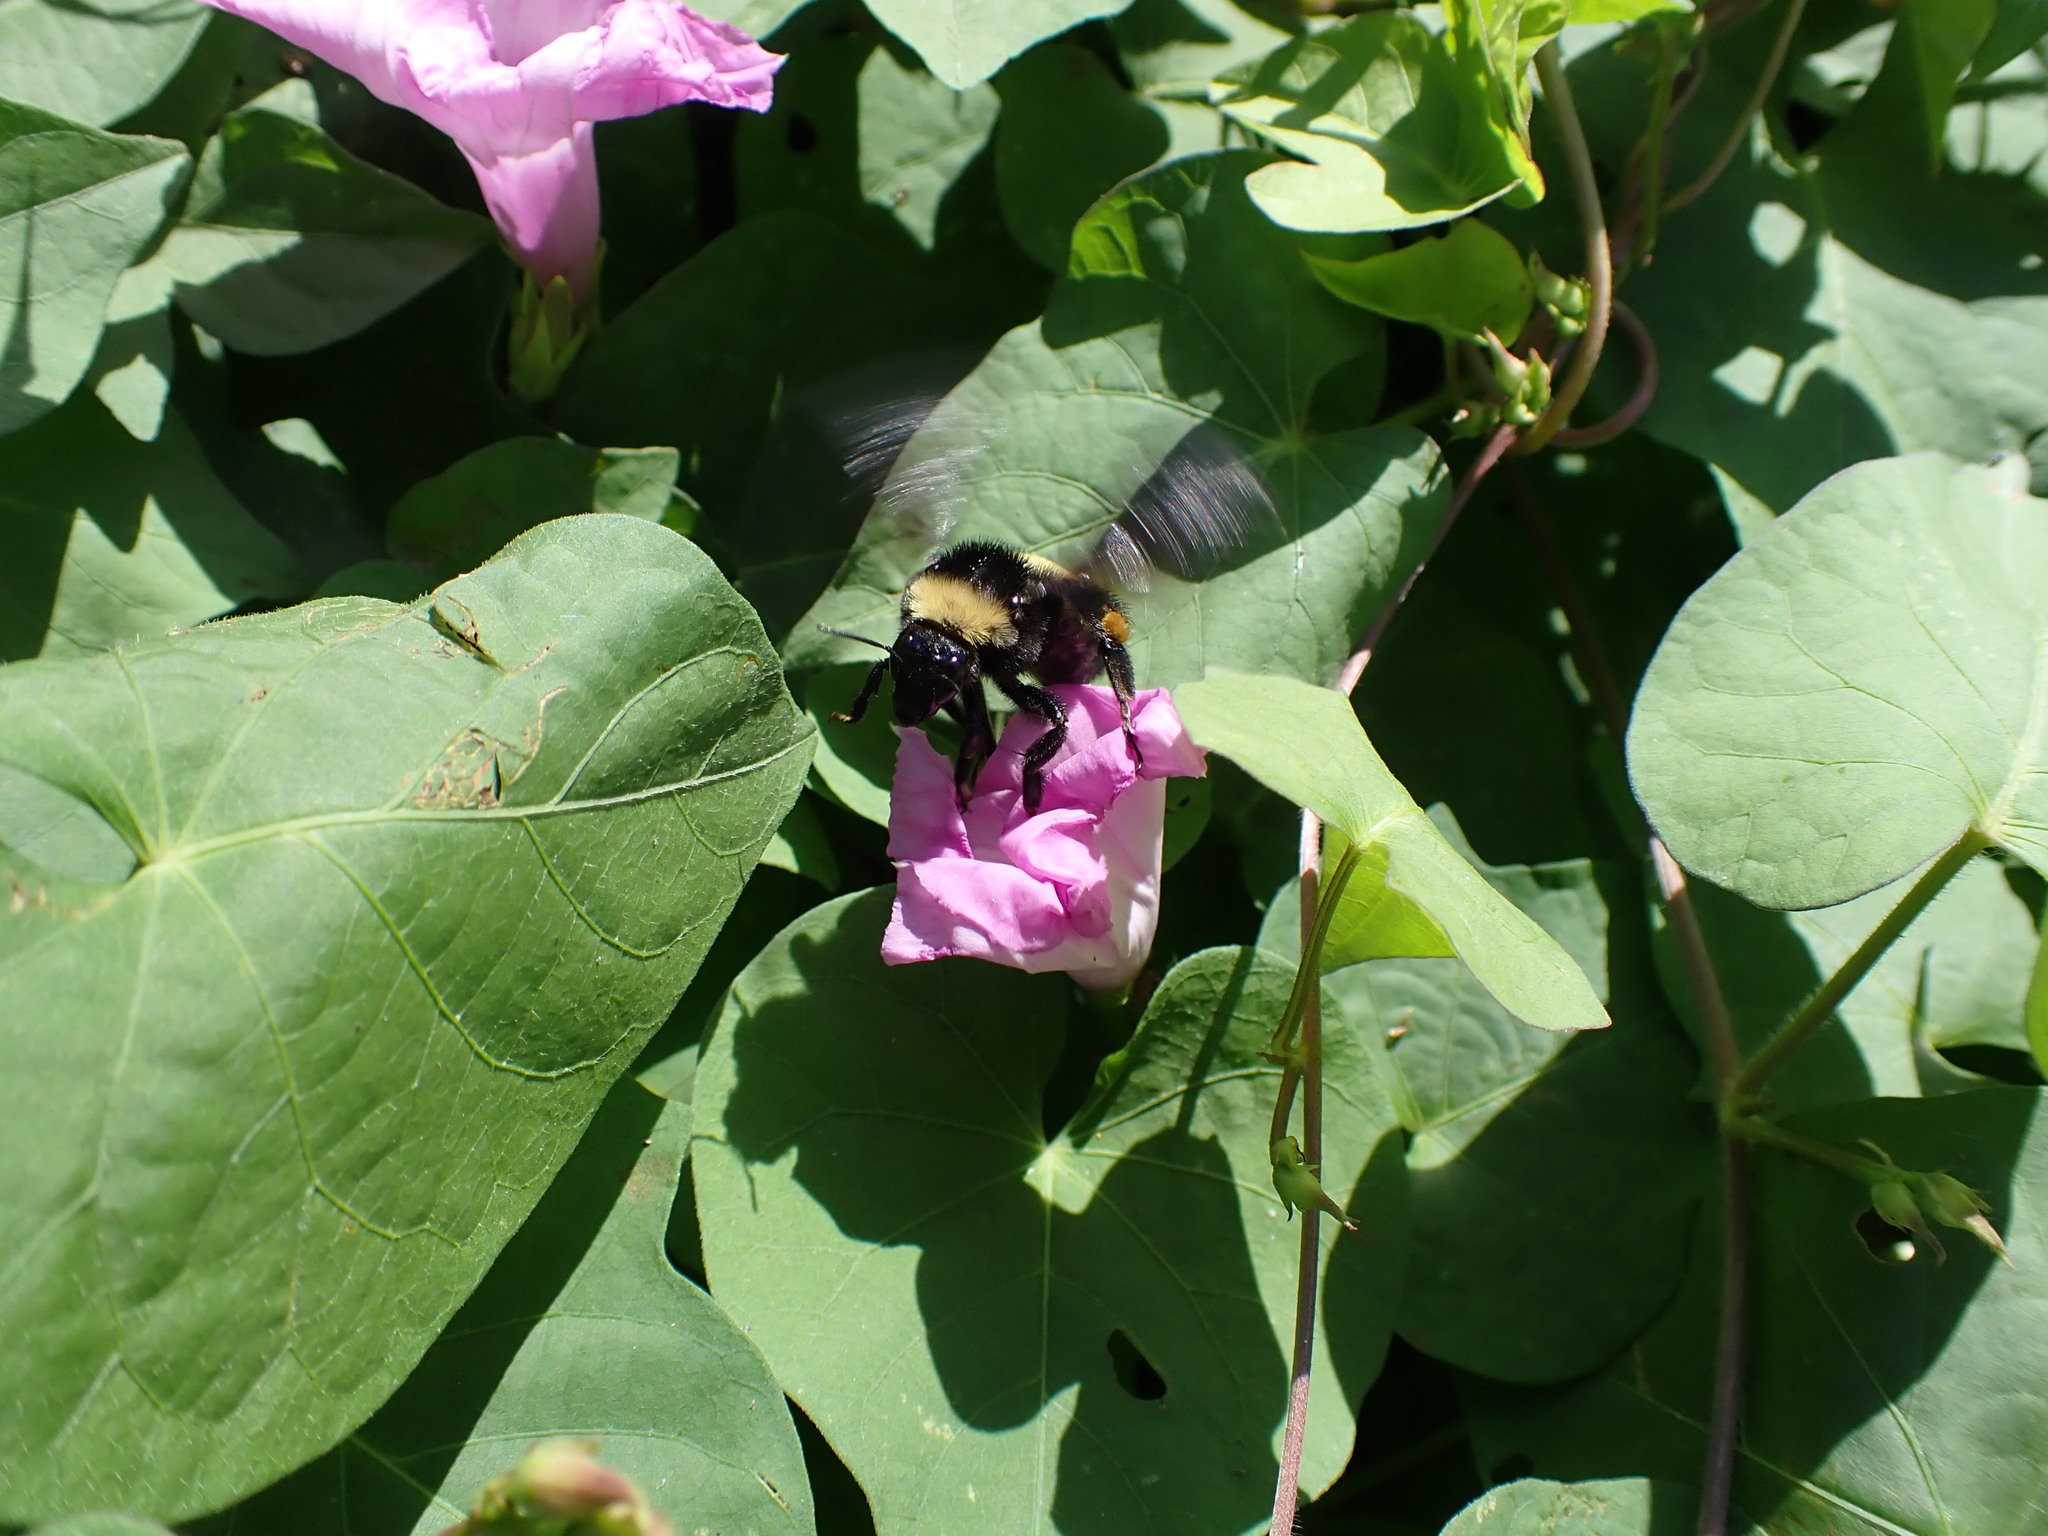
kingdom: Animalia
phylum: Arthropoda
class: Insecta
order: Hymenoptera
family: Apidae
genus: Bombus
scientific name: Bombus pensylvanicus
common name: Bumble bee
